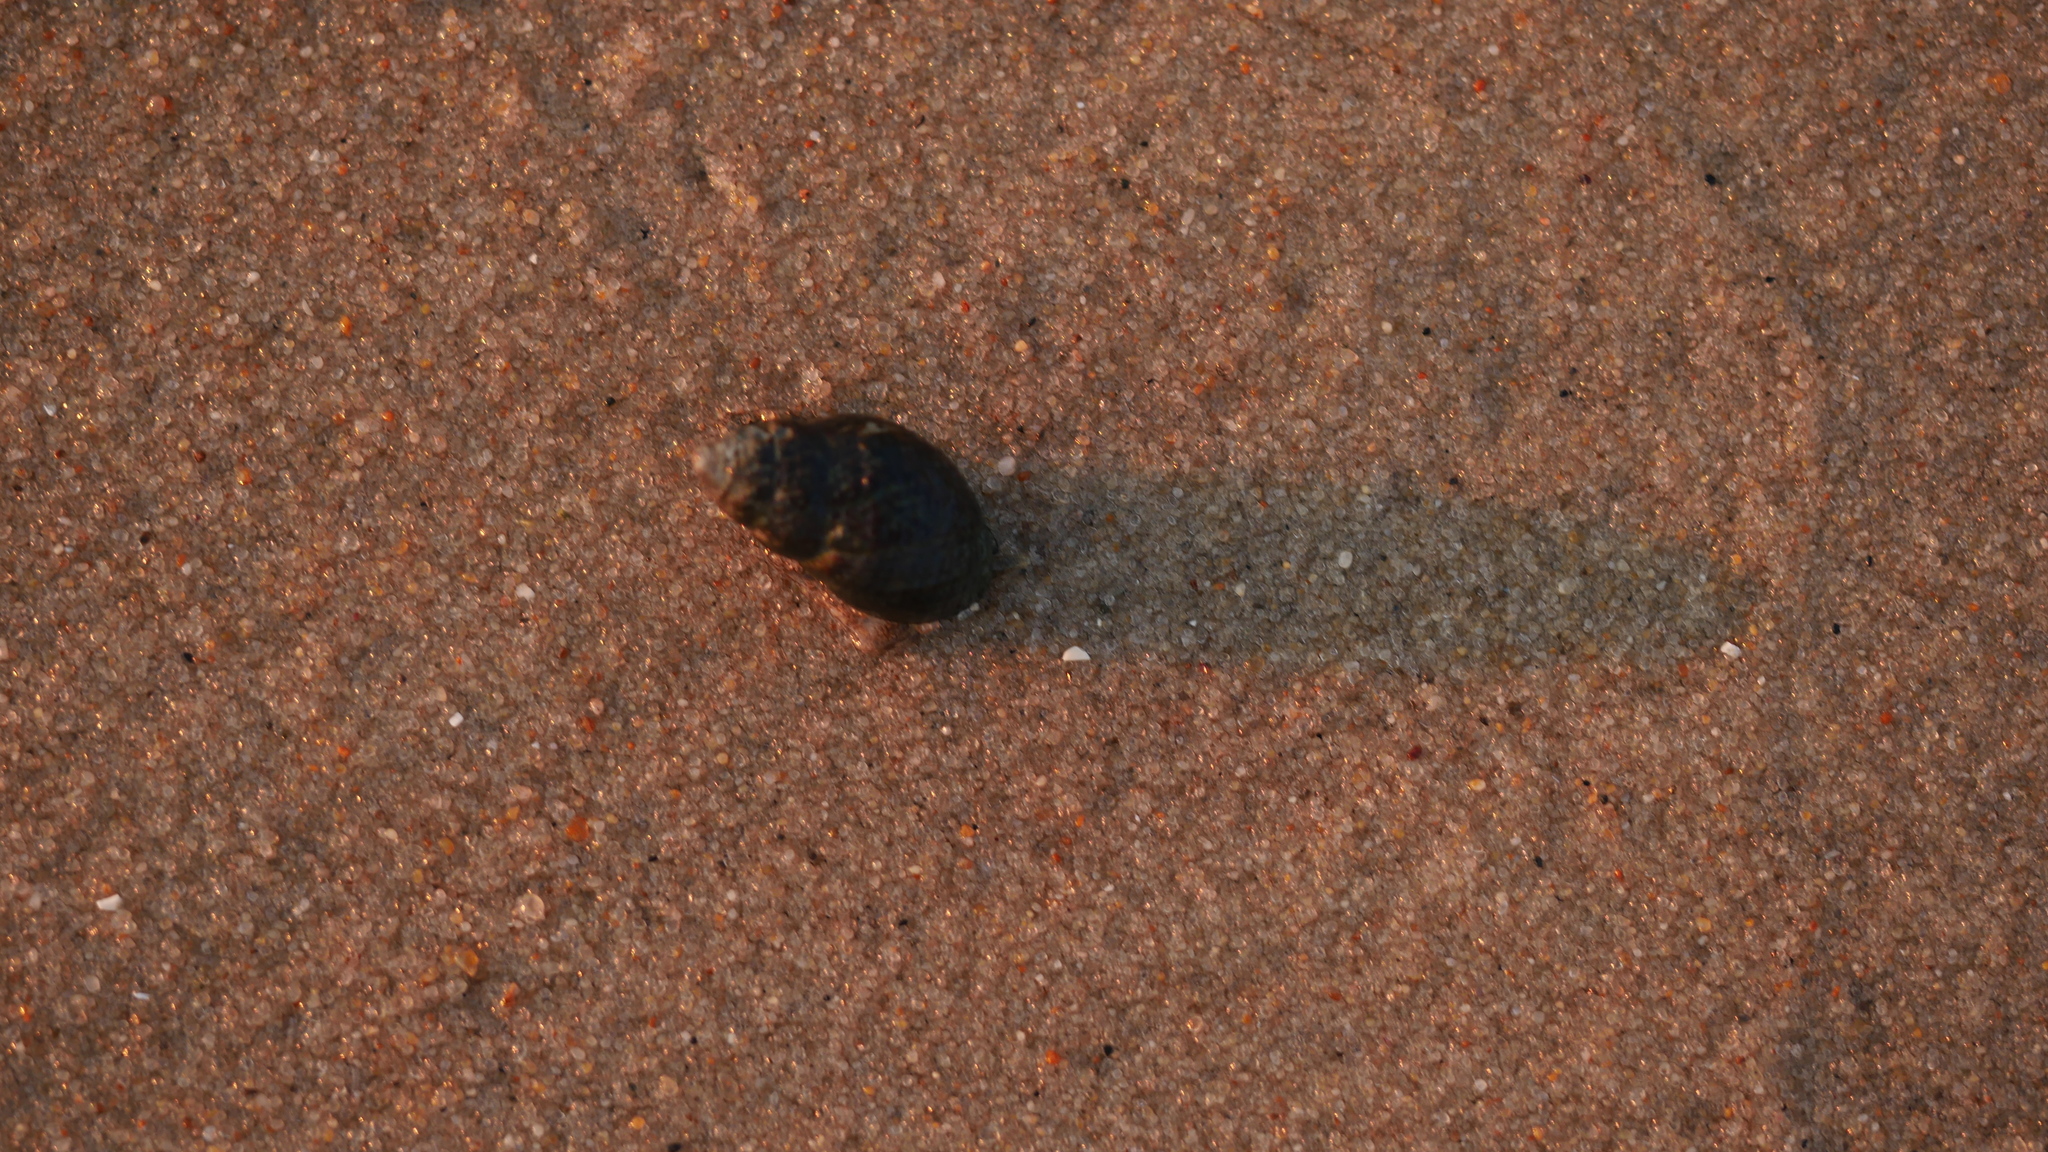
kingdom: Animalia
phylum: Mollusca
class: Gastropoda
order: Neogastropoda
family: Nassariidae
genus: Ilyanassa
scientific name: Ilyanassa obsoleta
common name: Eastern mudsnail
